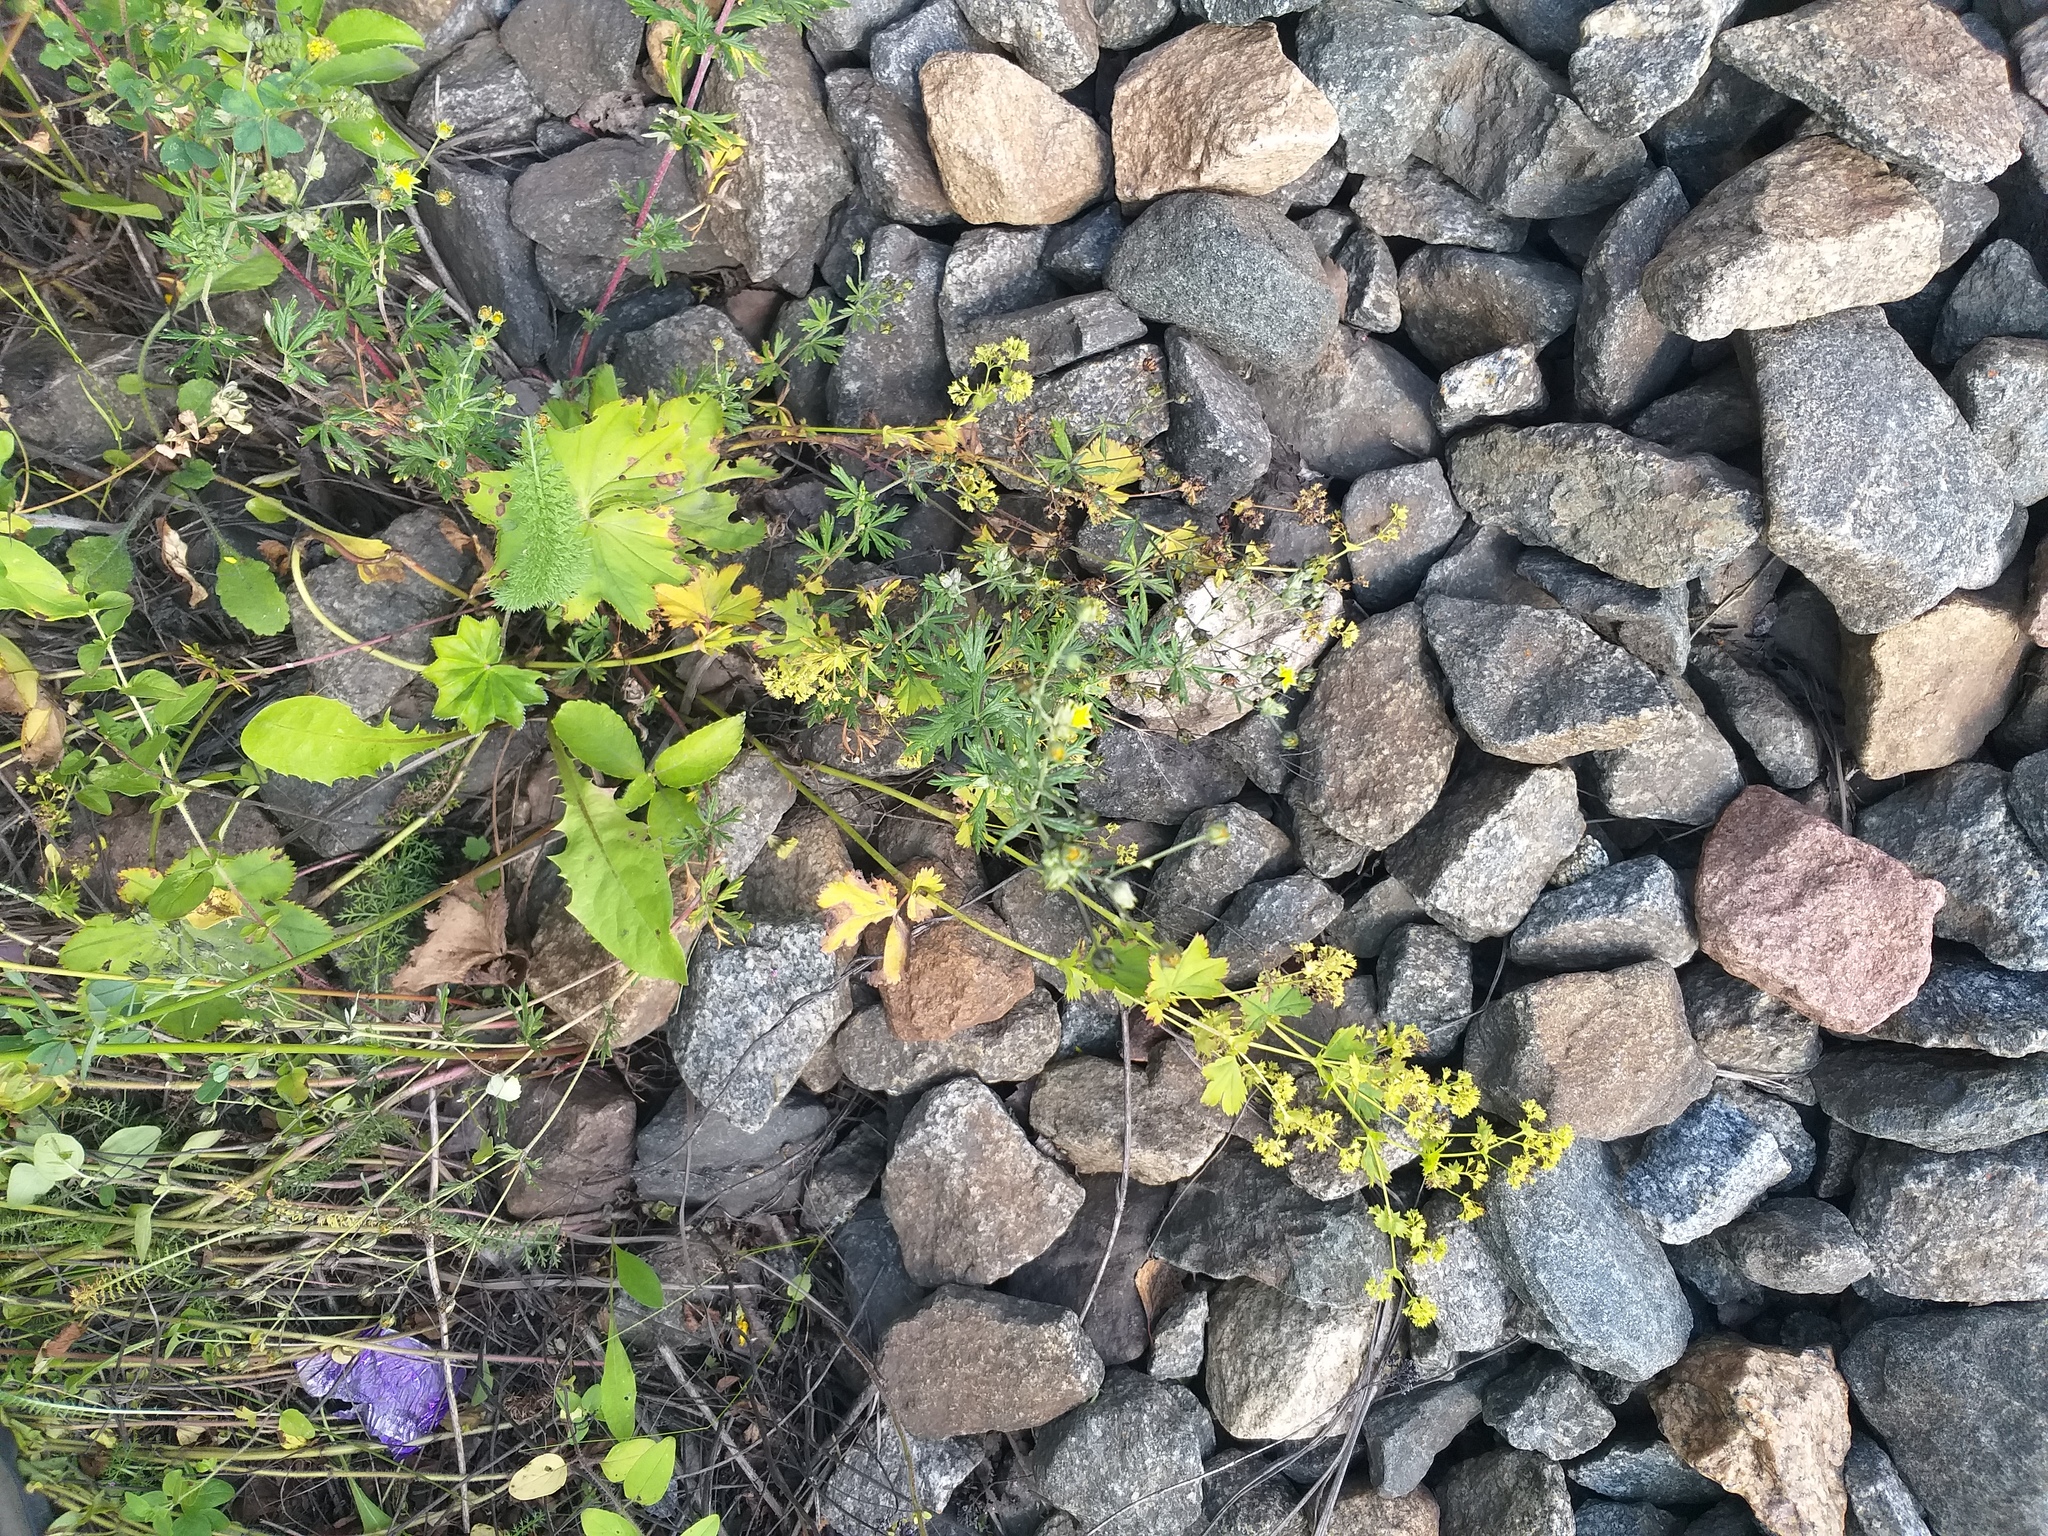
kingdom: Plantae
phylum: Tracheophyta
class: Magnoliopsida
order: Rosales
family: Rosaceae
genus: Potentilla
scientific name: Potentilla argentea
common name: Hoary cinquefoil
